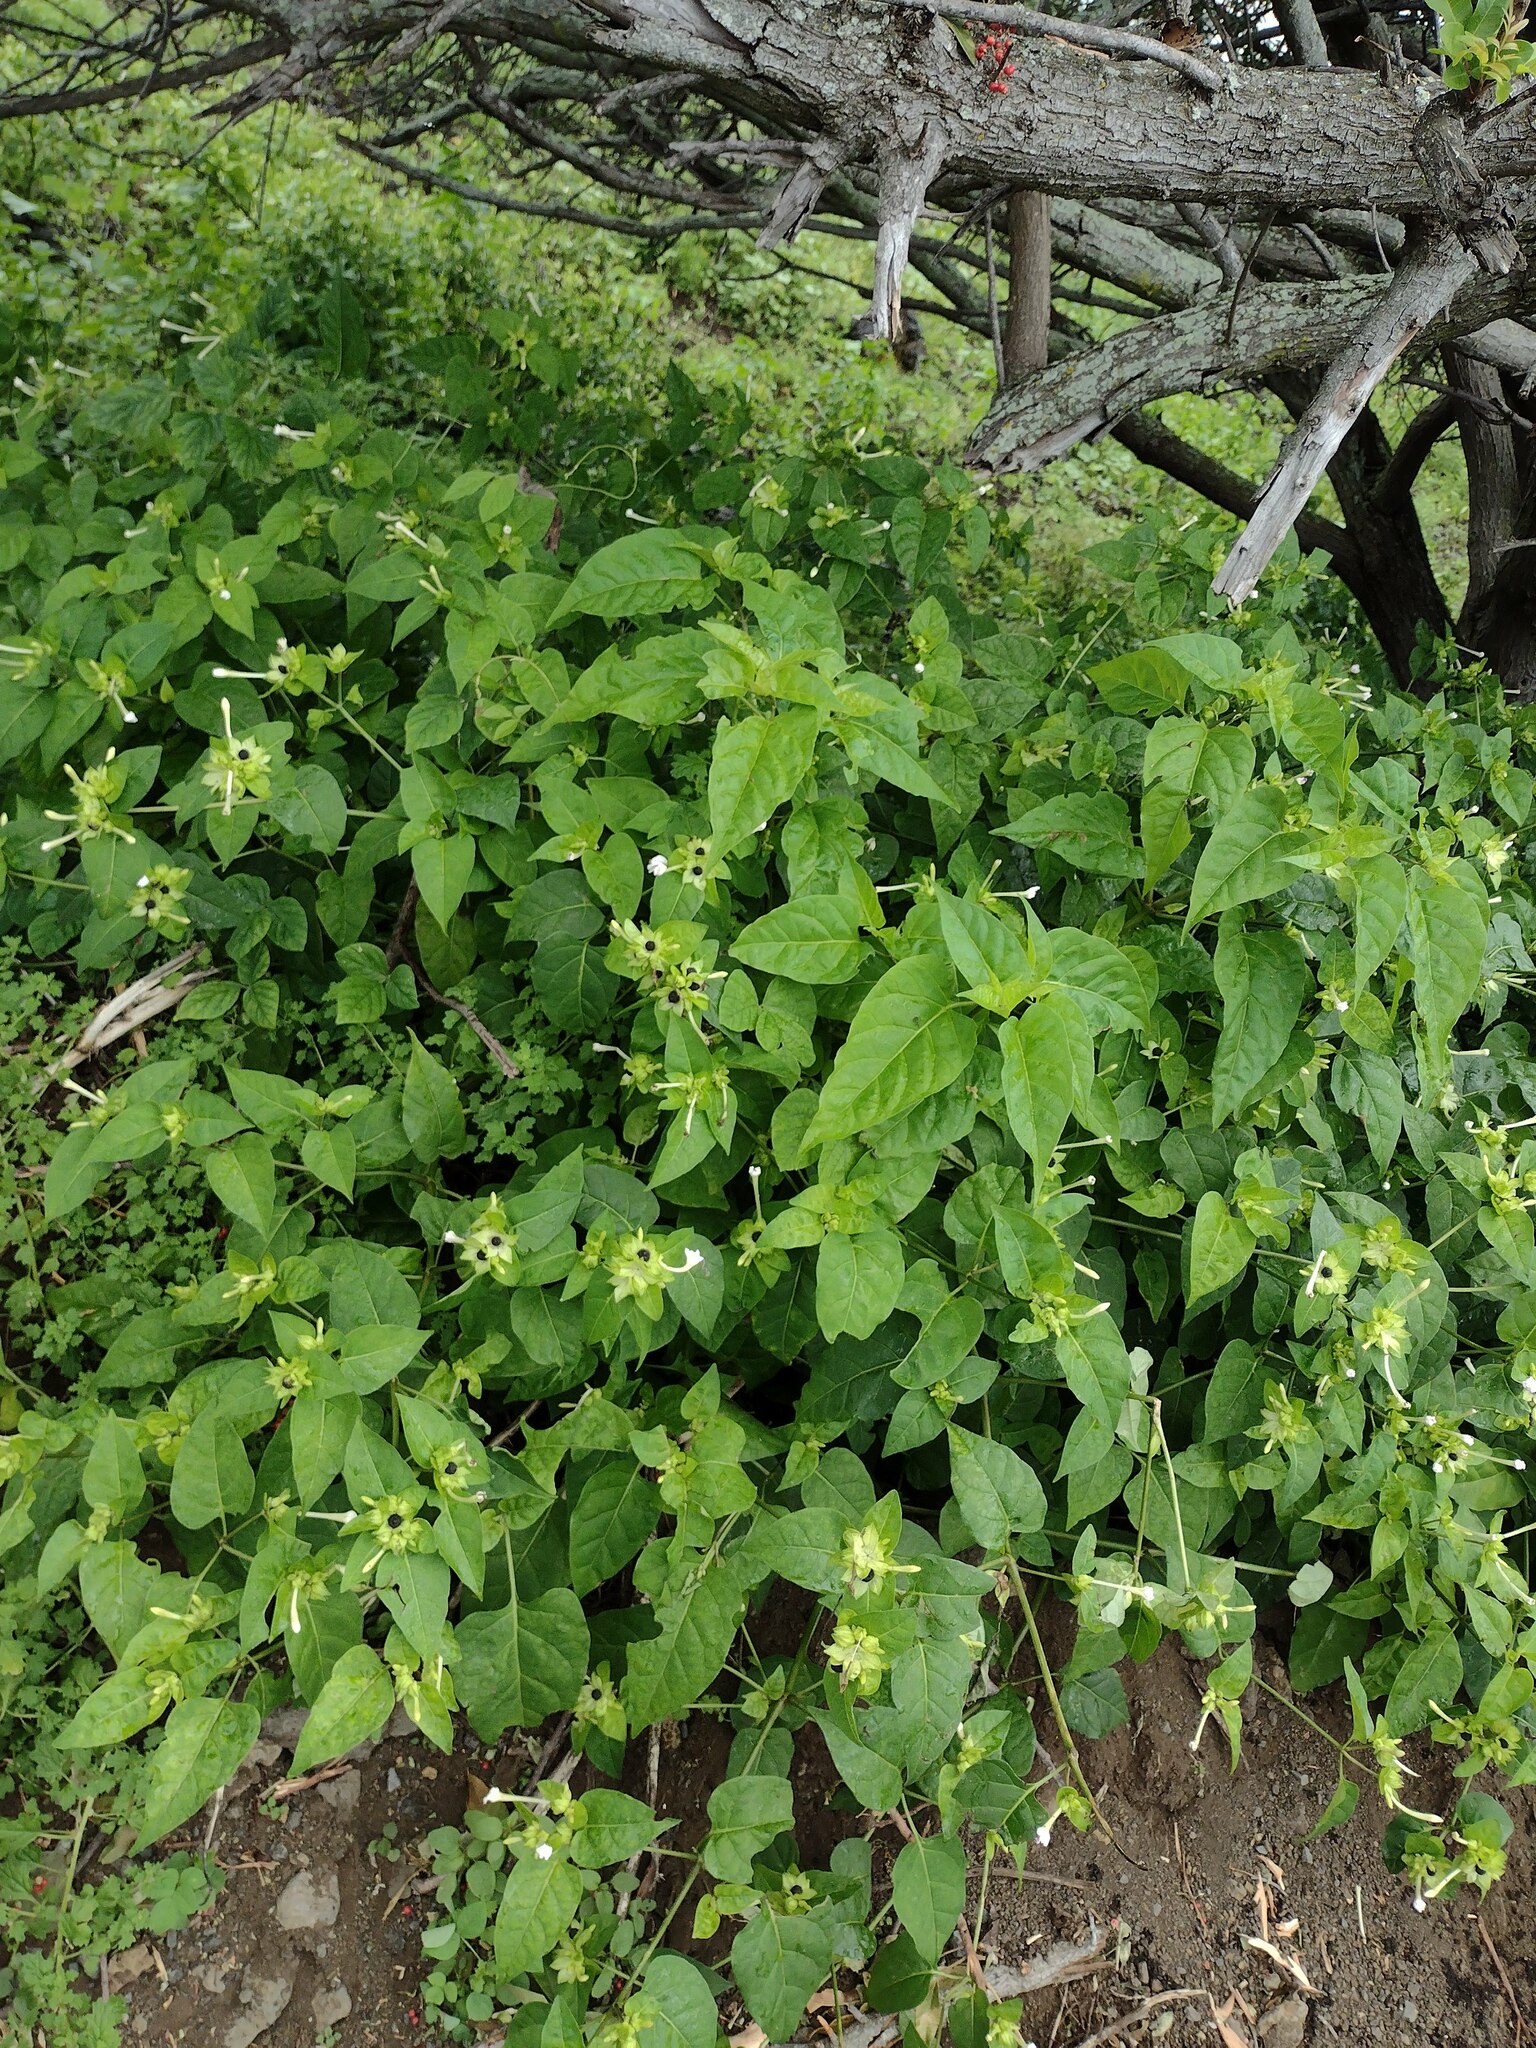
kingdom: Plantae
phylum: Tracheophyta
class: Magnoliopsida
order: Caryophyllales
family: Nyctaginaceae
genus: Mirabilis
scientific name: Mirabilis jalapa
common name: Marvel-of-peru
